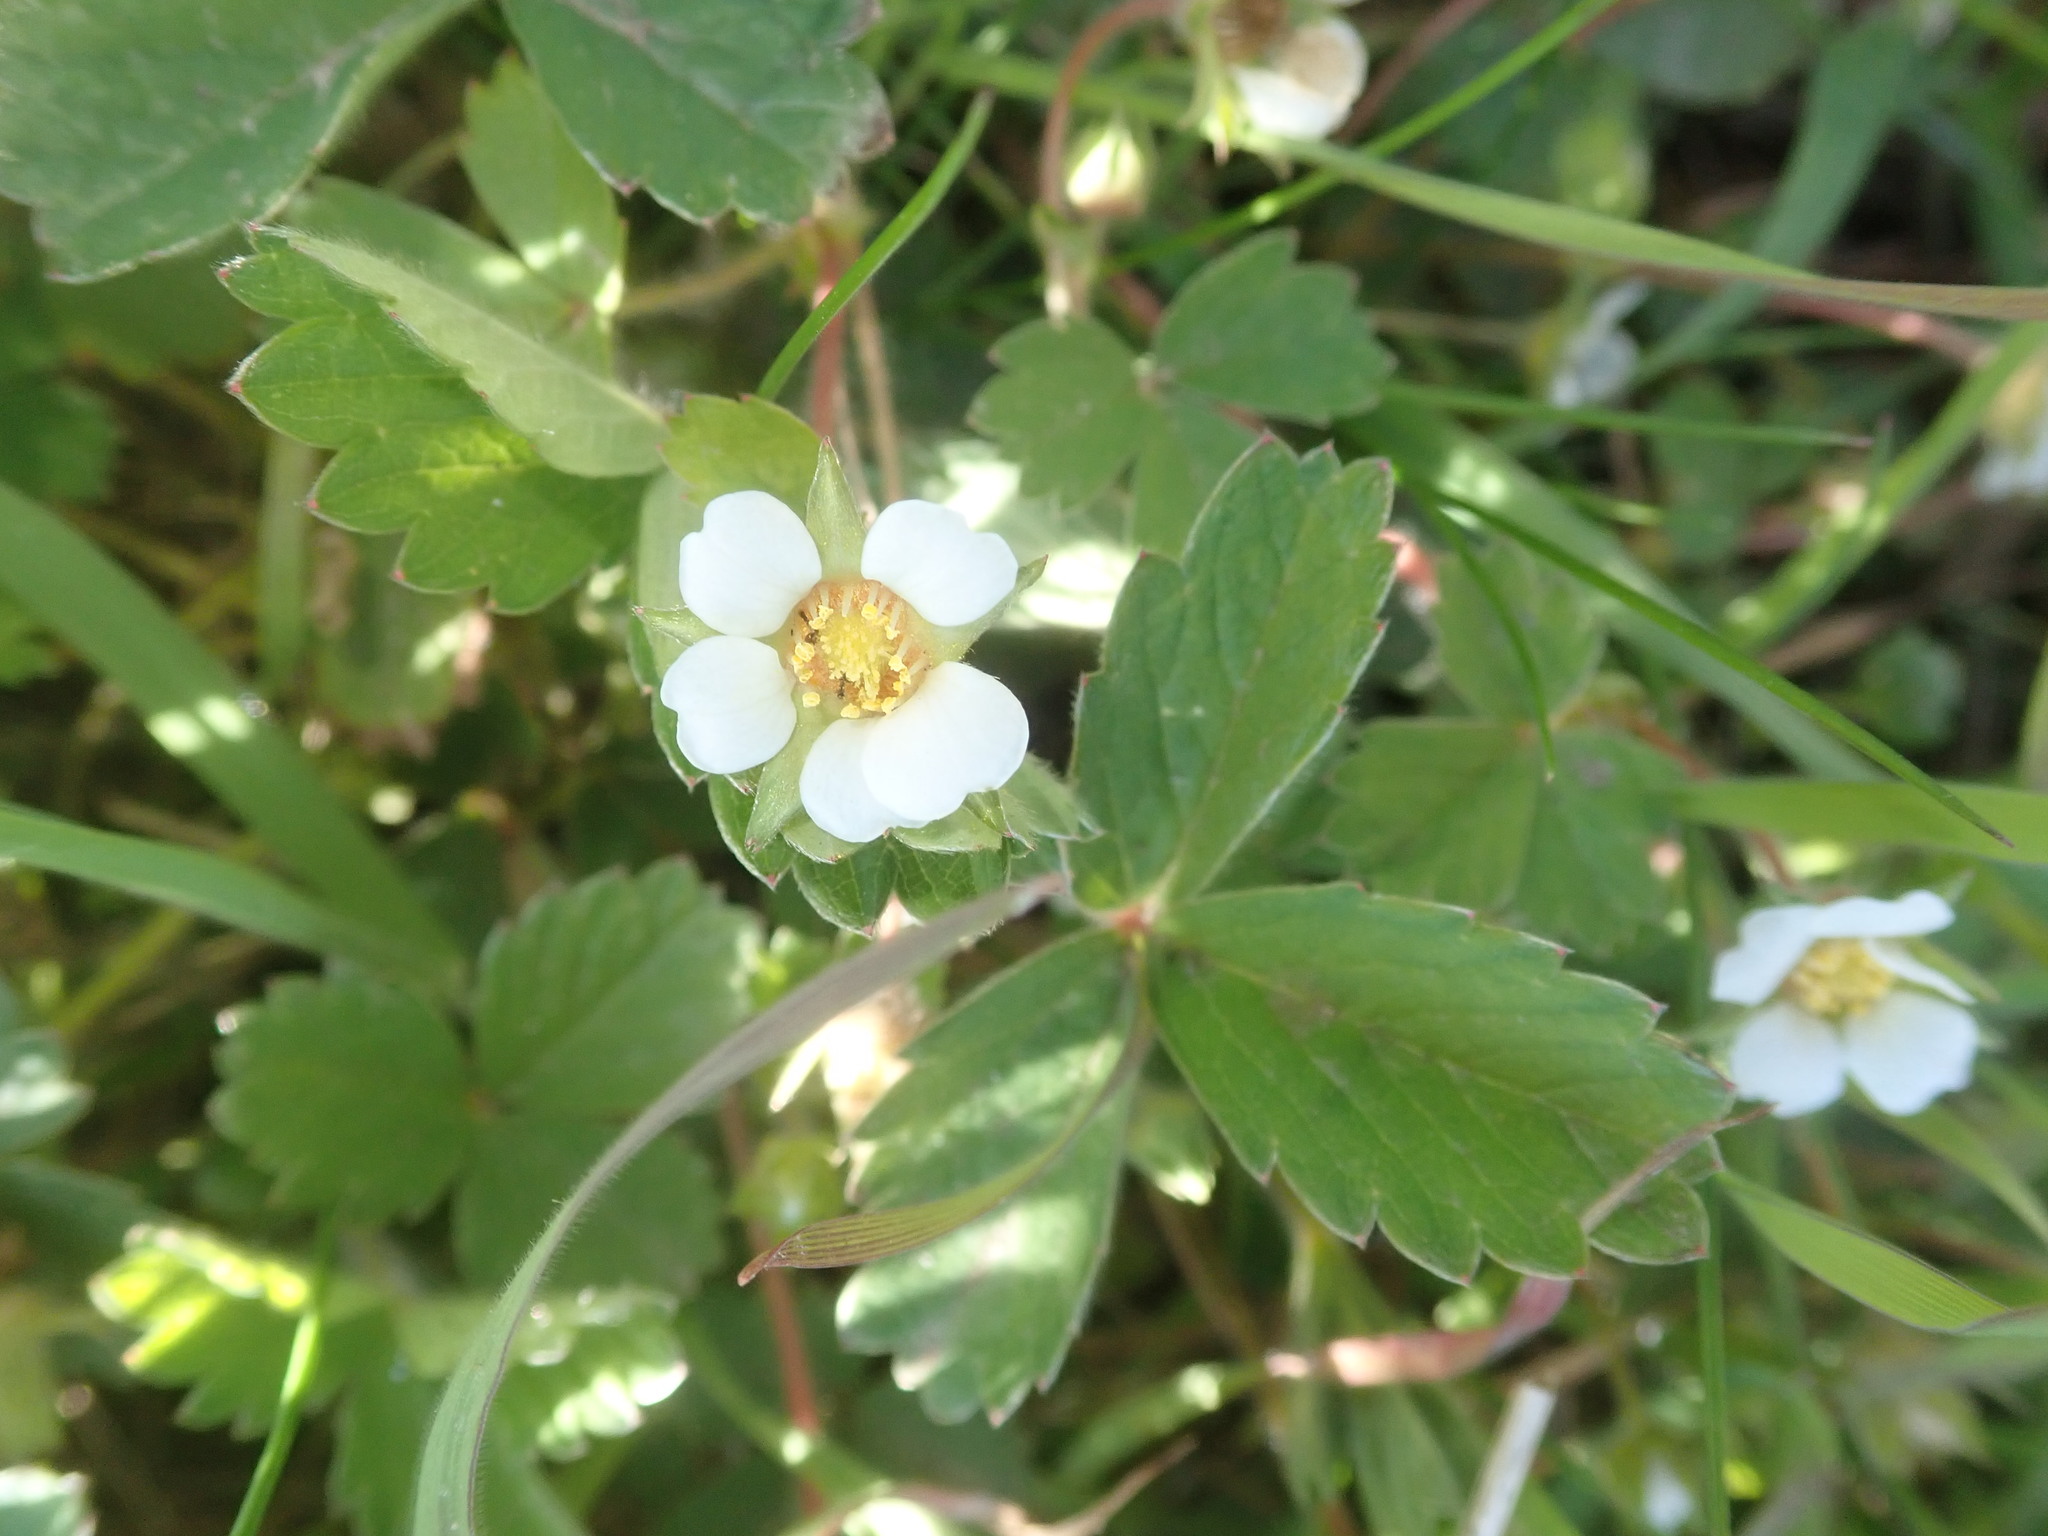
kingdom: Plantae
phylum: Tracheophyta
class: Magnoliopsida
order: Rosales
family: Rosaceae
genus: Potentilla
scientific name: Potentilla sterilis
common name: Barren strawberry
